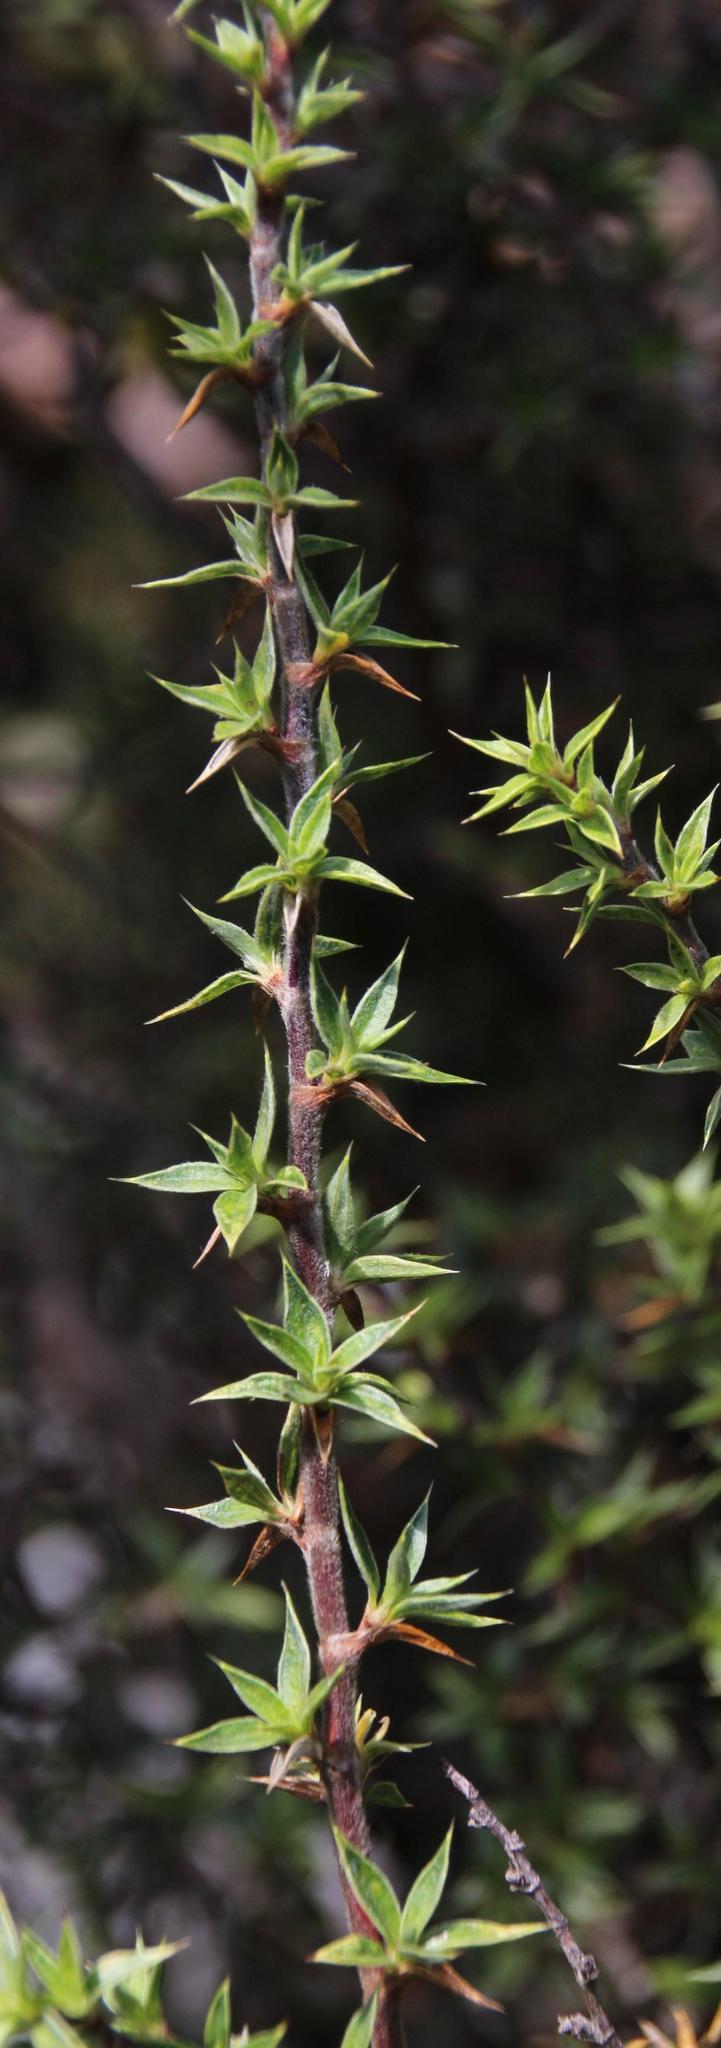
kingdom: Plantae
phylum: Tracheophyta
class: Magnoliopsida
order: Rosales
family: Rosaceae
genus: Cliffortia
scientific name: Cliffortia ruscifolia
